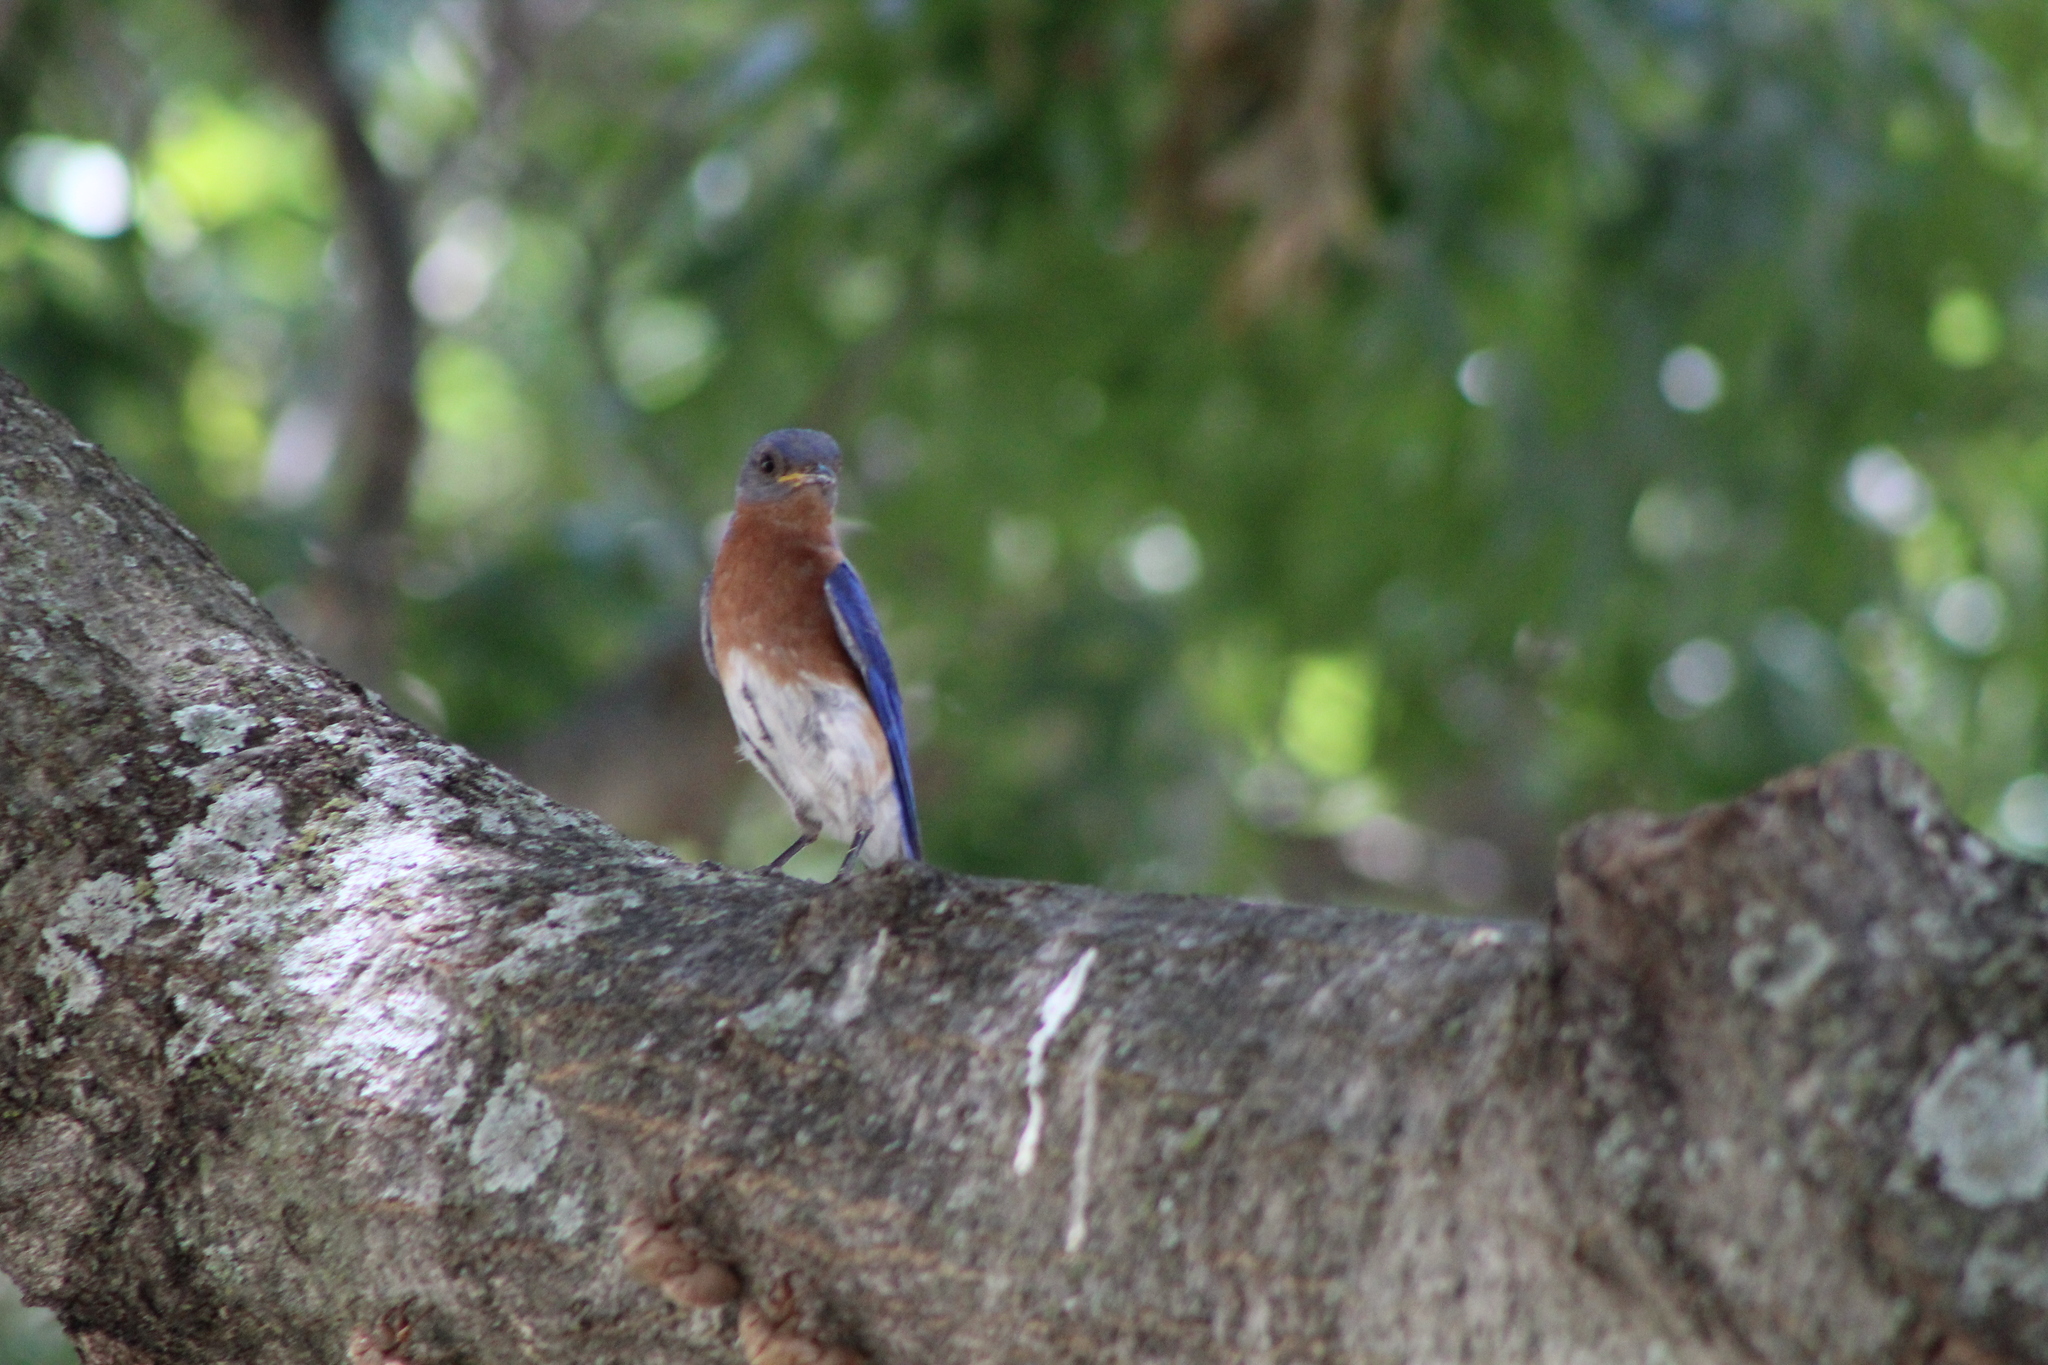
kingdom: Animalia
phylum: Chordata
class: Aves
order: Passeriformes
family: Turdidae
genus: Sialia
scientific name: Sialia sialis
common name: Eastern bluebird
